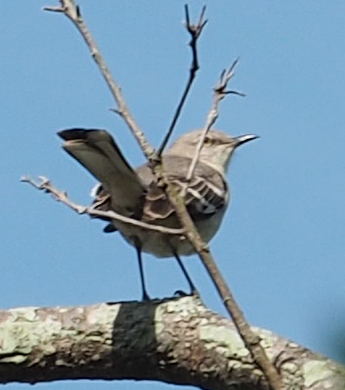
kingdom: Animalia
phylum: Chordata
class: Aves
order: Passeriformes
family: Mimidae
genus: Mimus
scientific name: Mimus polyglottos
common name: Northern mockingbird
